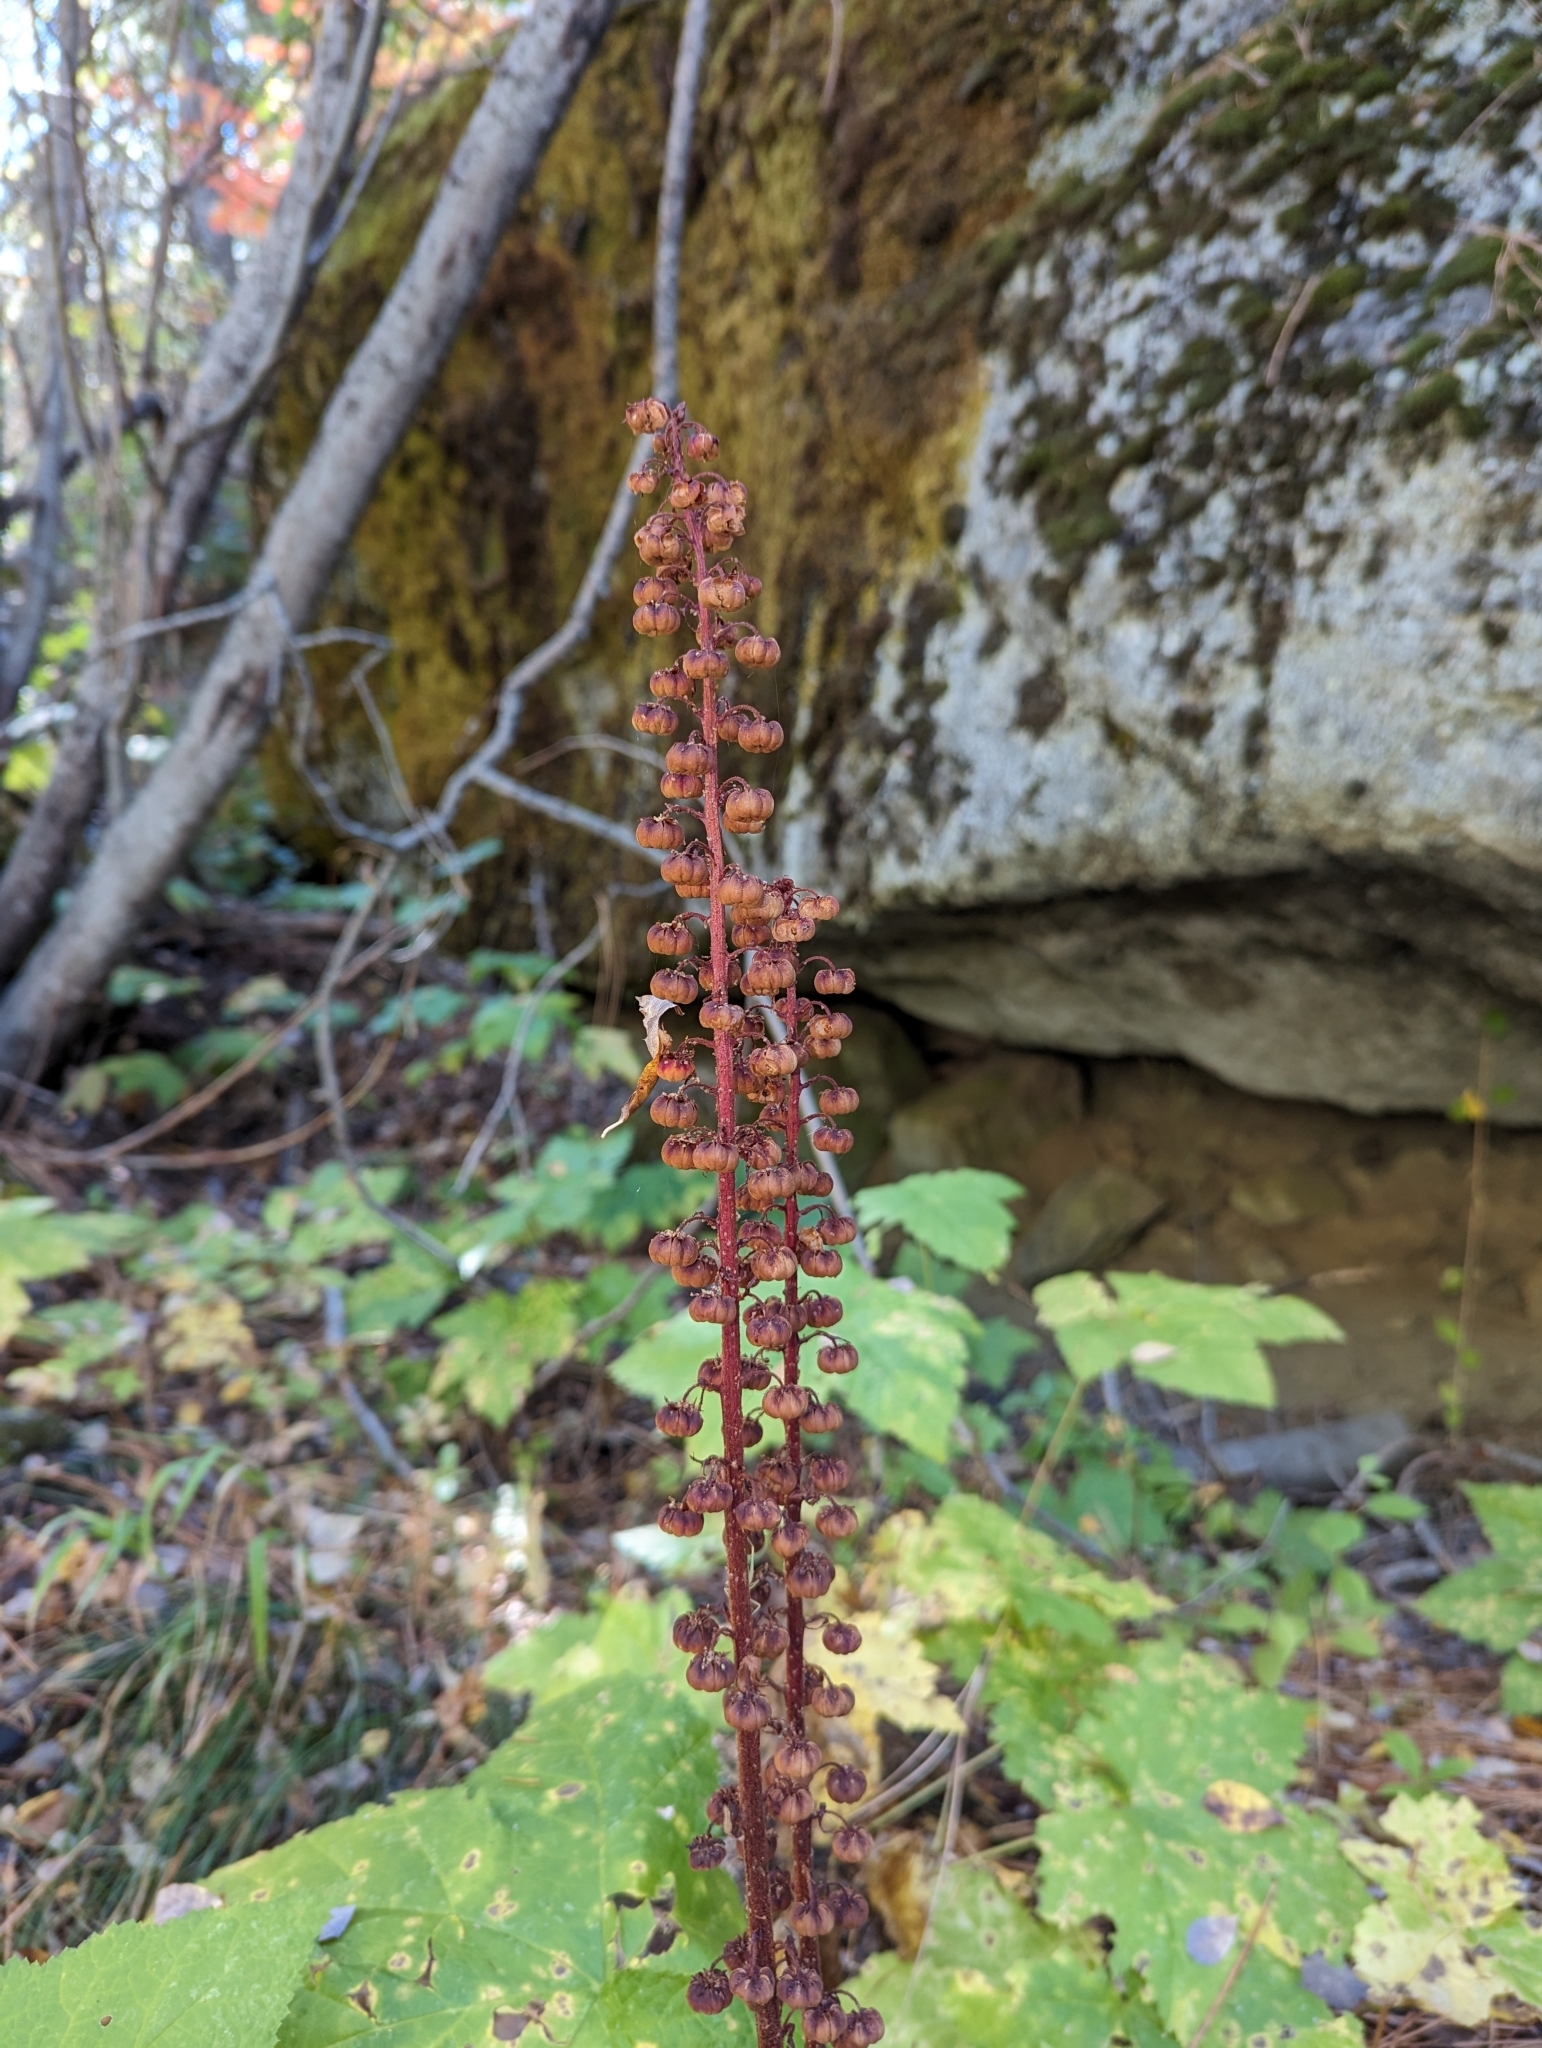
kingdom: Plantae
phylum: Tracheophyta
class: Magnoliopsida
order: Ericales
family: Ericaceae
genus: Pterospora
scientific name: Pterospora andromedea
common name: Giant bird's-nest
